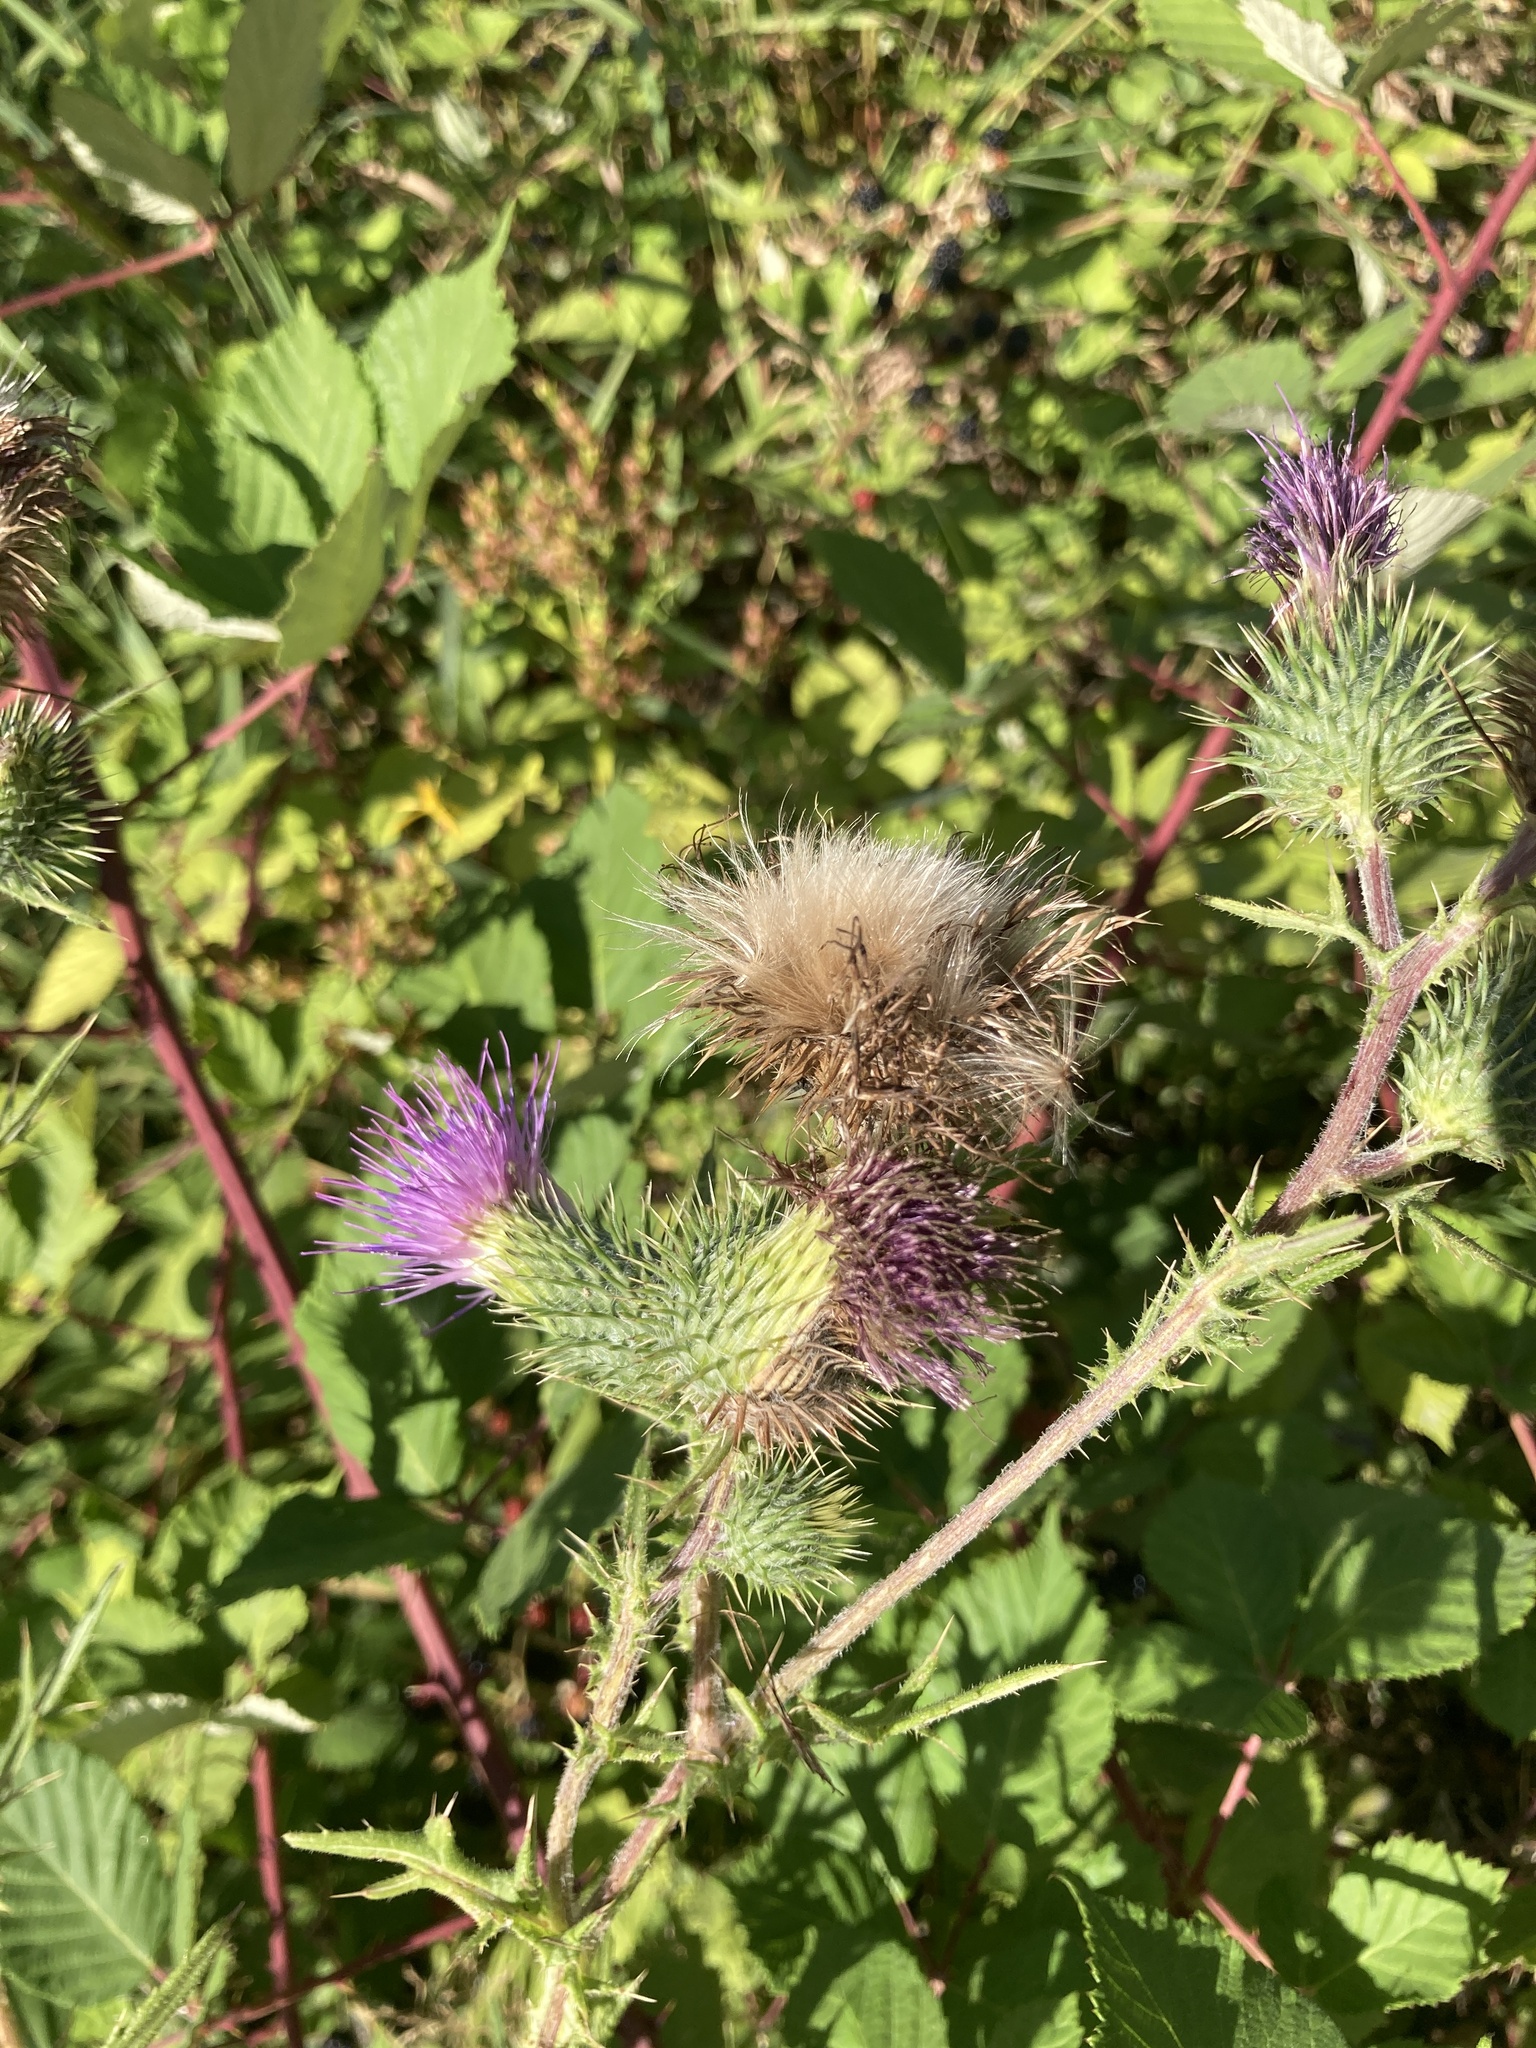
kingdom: Plantae
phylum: Tracheophyta
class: Magnoliopsida
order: Asterales
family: Asteraceae
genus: Cirsium
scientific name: Cirsium vulgare
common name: Bull thistle
